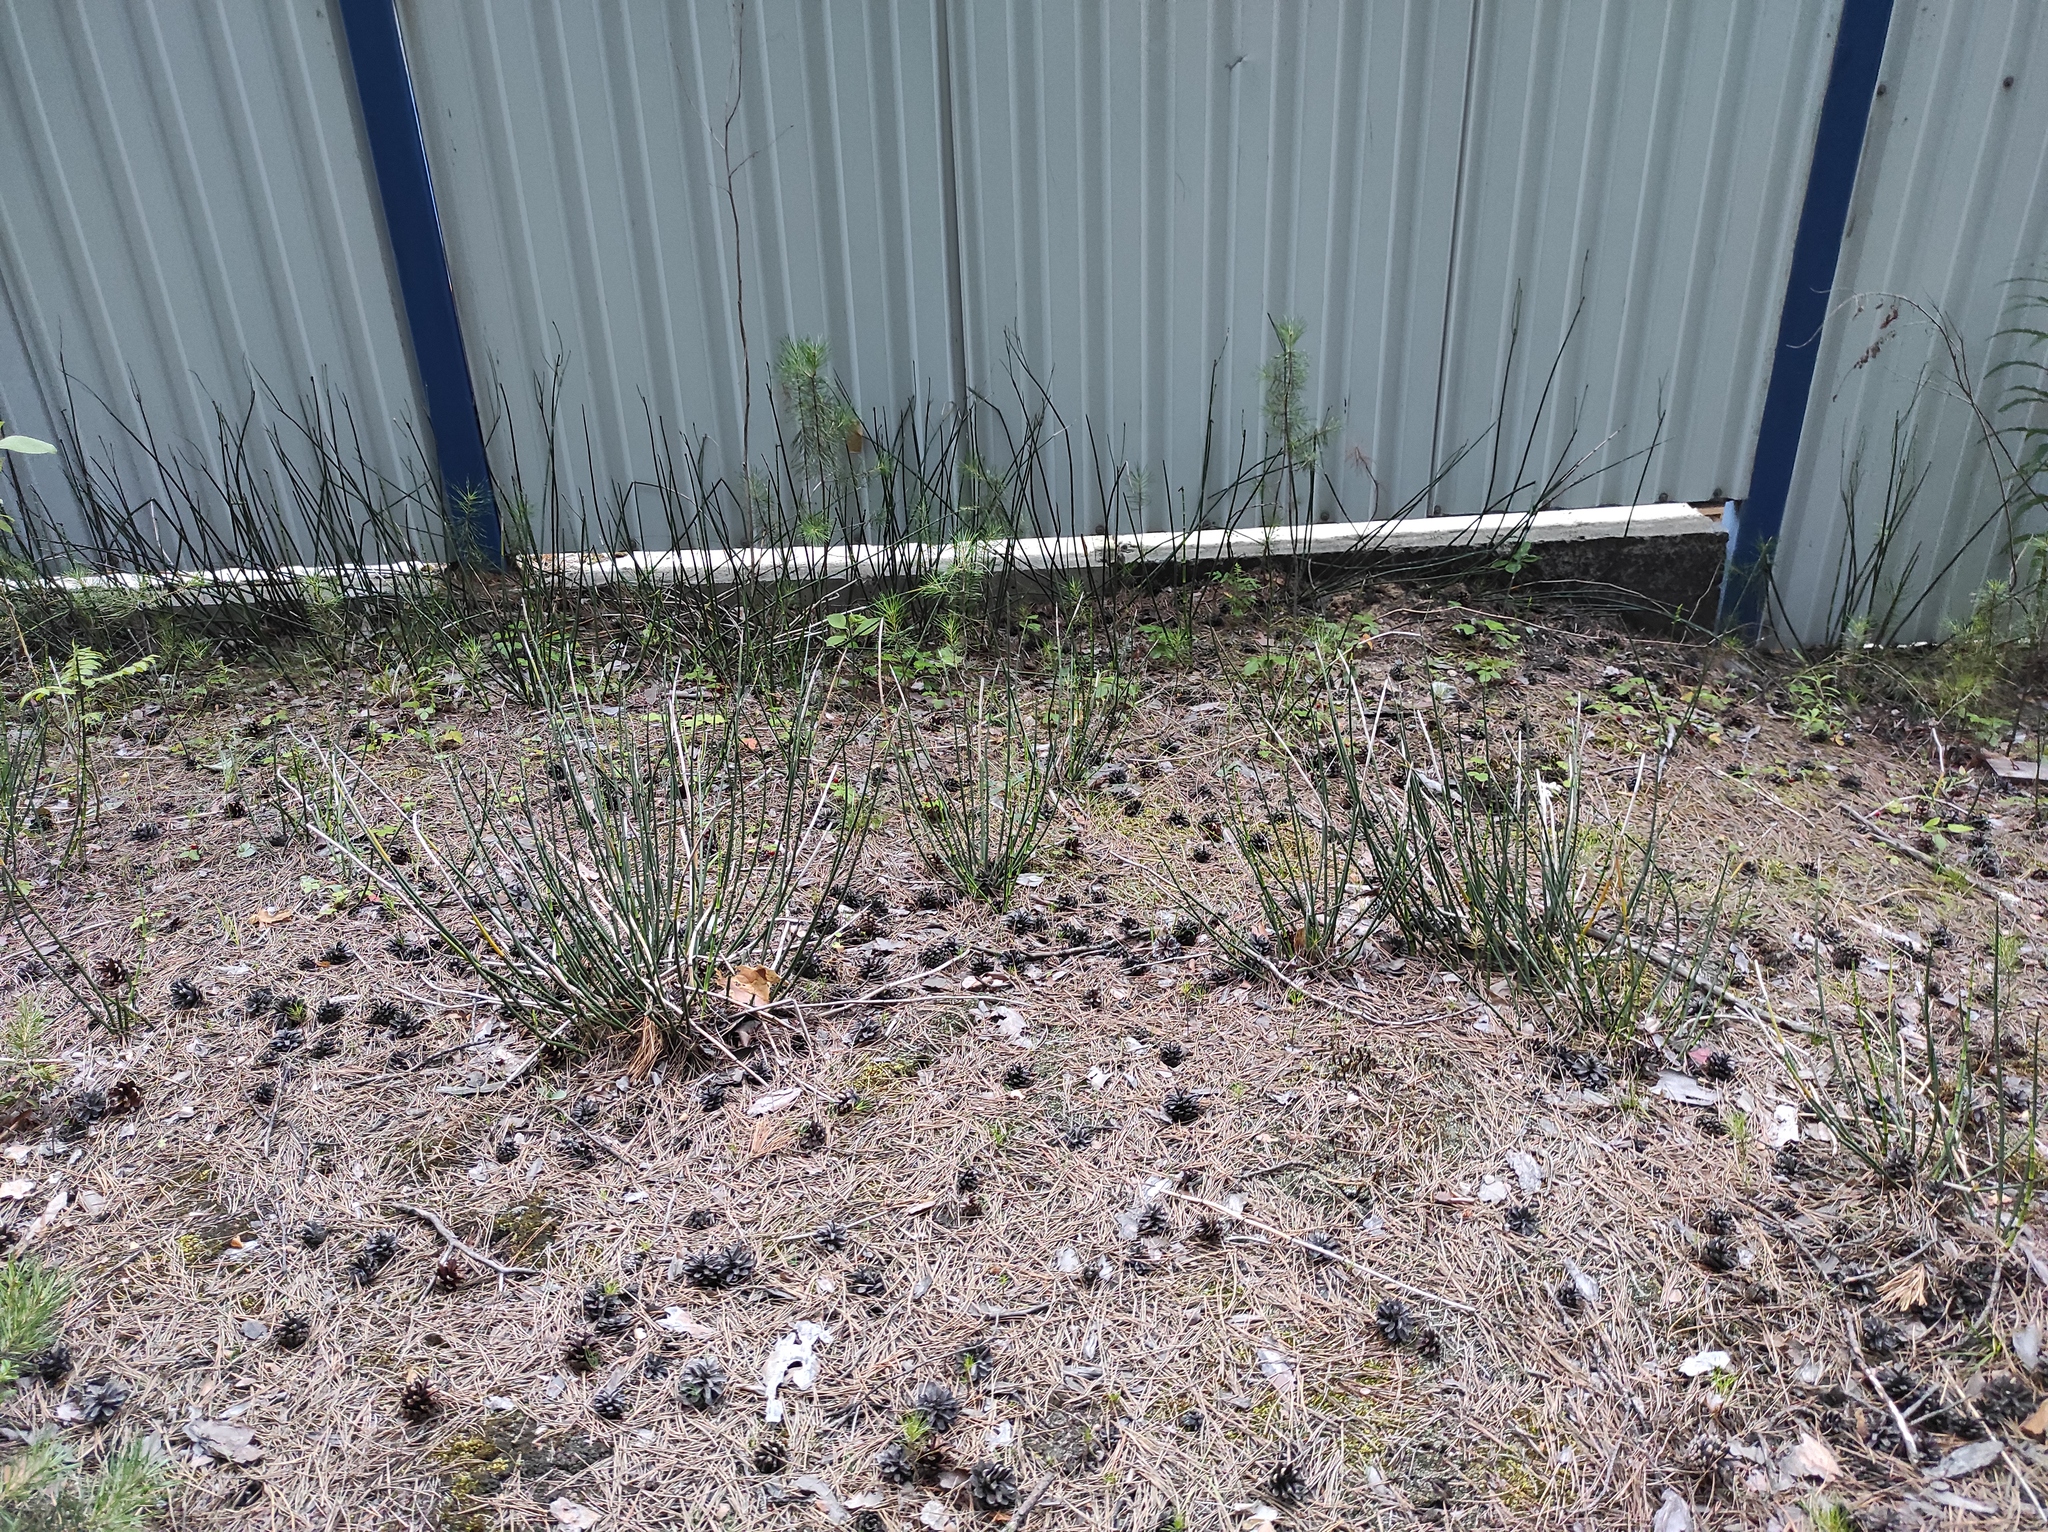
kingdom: Plantae
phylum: Tracheophyta
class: Polypodiopsida
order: Equisetales
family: Equisetaceae
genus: Equisetum
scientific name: Equisetum hyemale
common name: Rough horsetail
